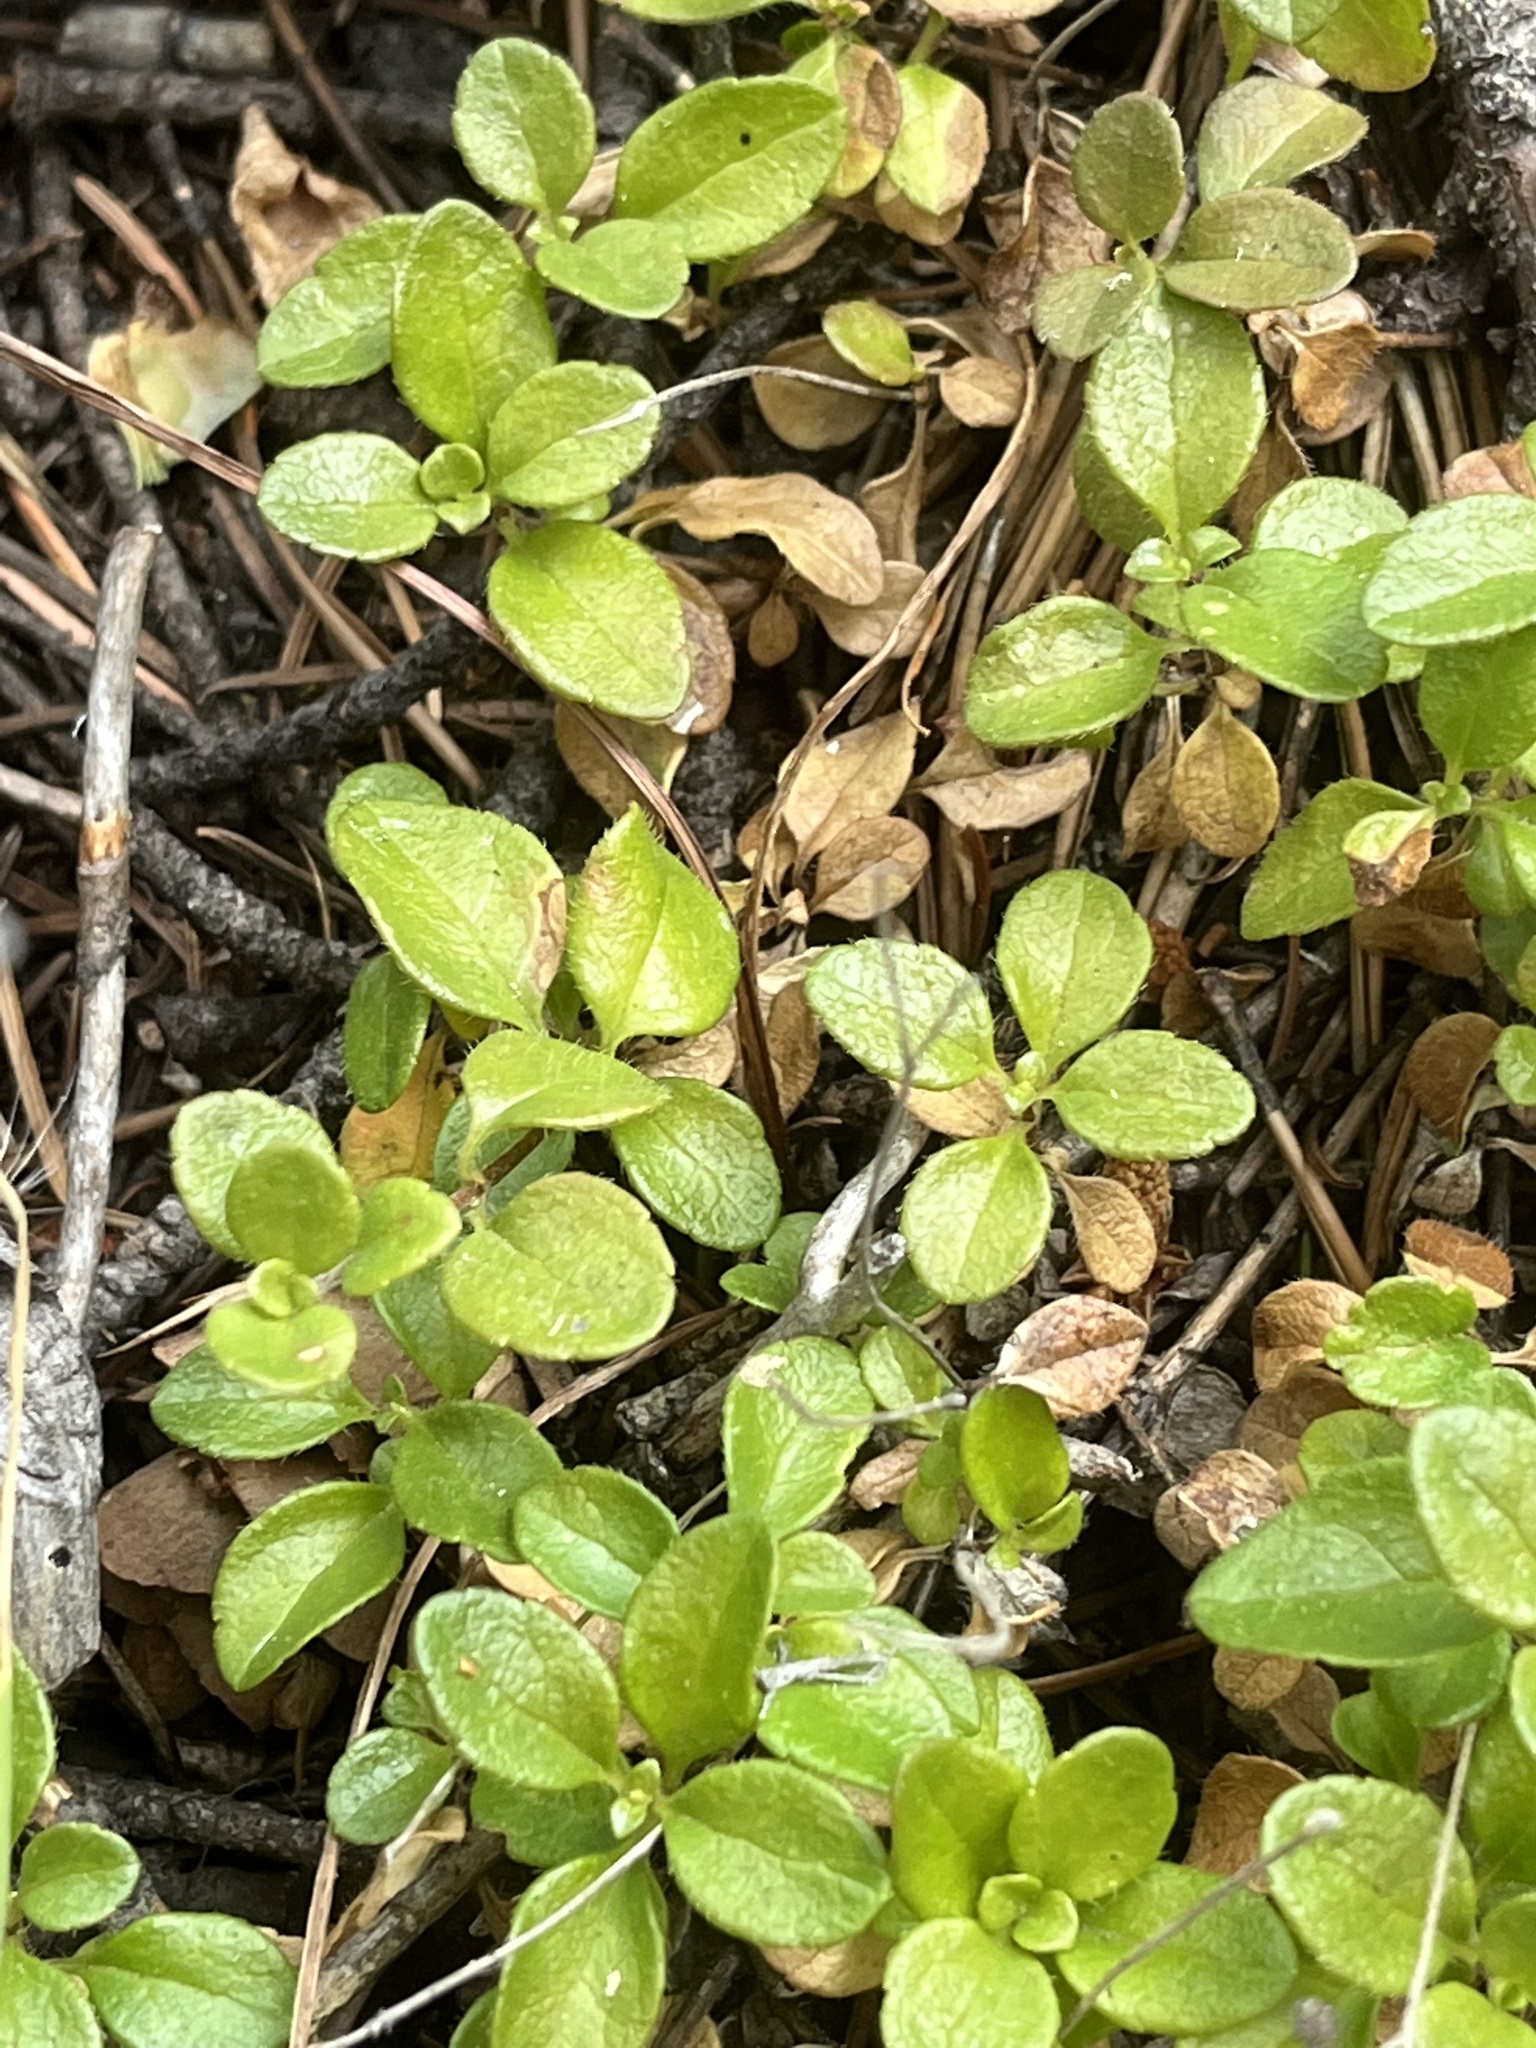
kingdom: Plantae
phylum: Tracheophyta
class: Magnoliopsida
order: Dipsacales
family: Caprifoliaceae
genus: Linnaea
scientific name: Linnaea borealis
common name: Twinflower
